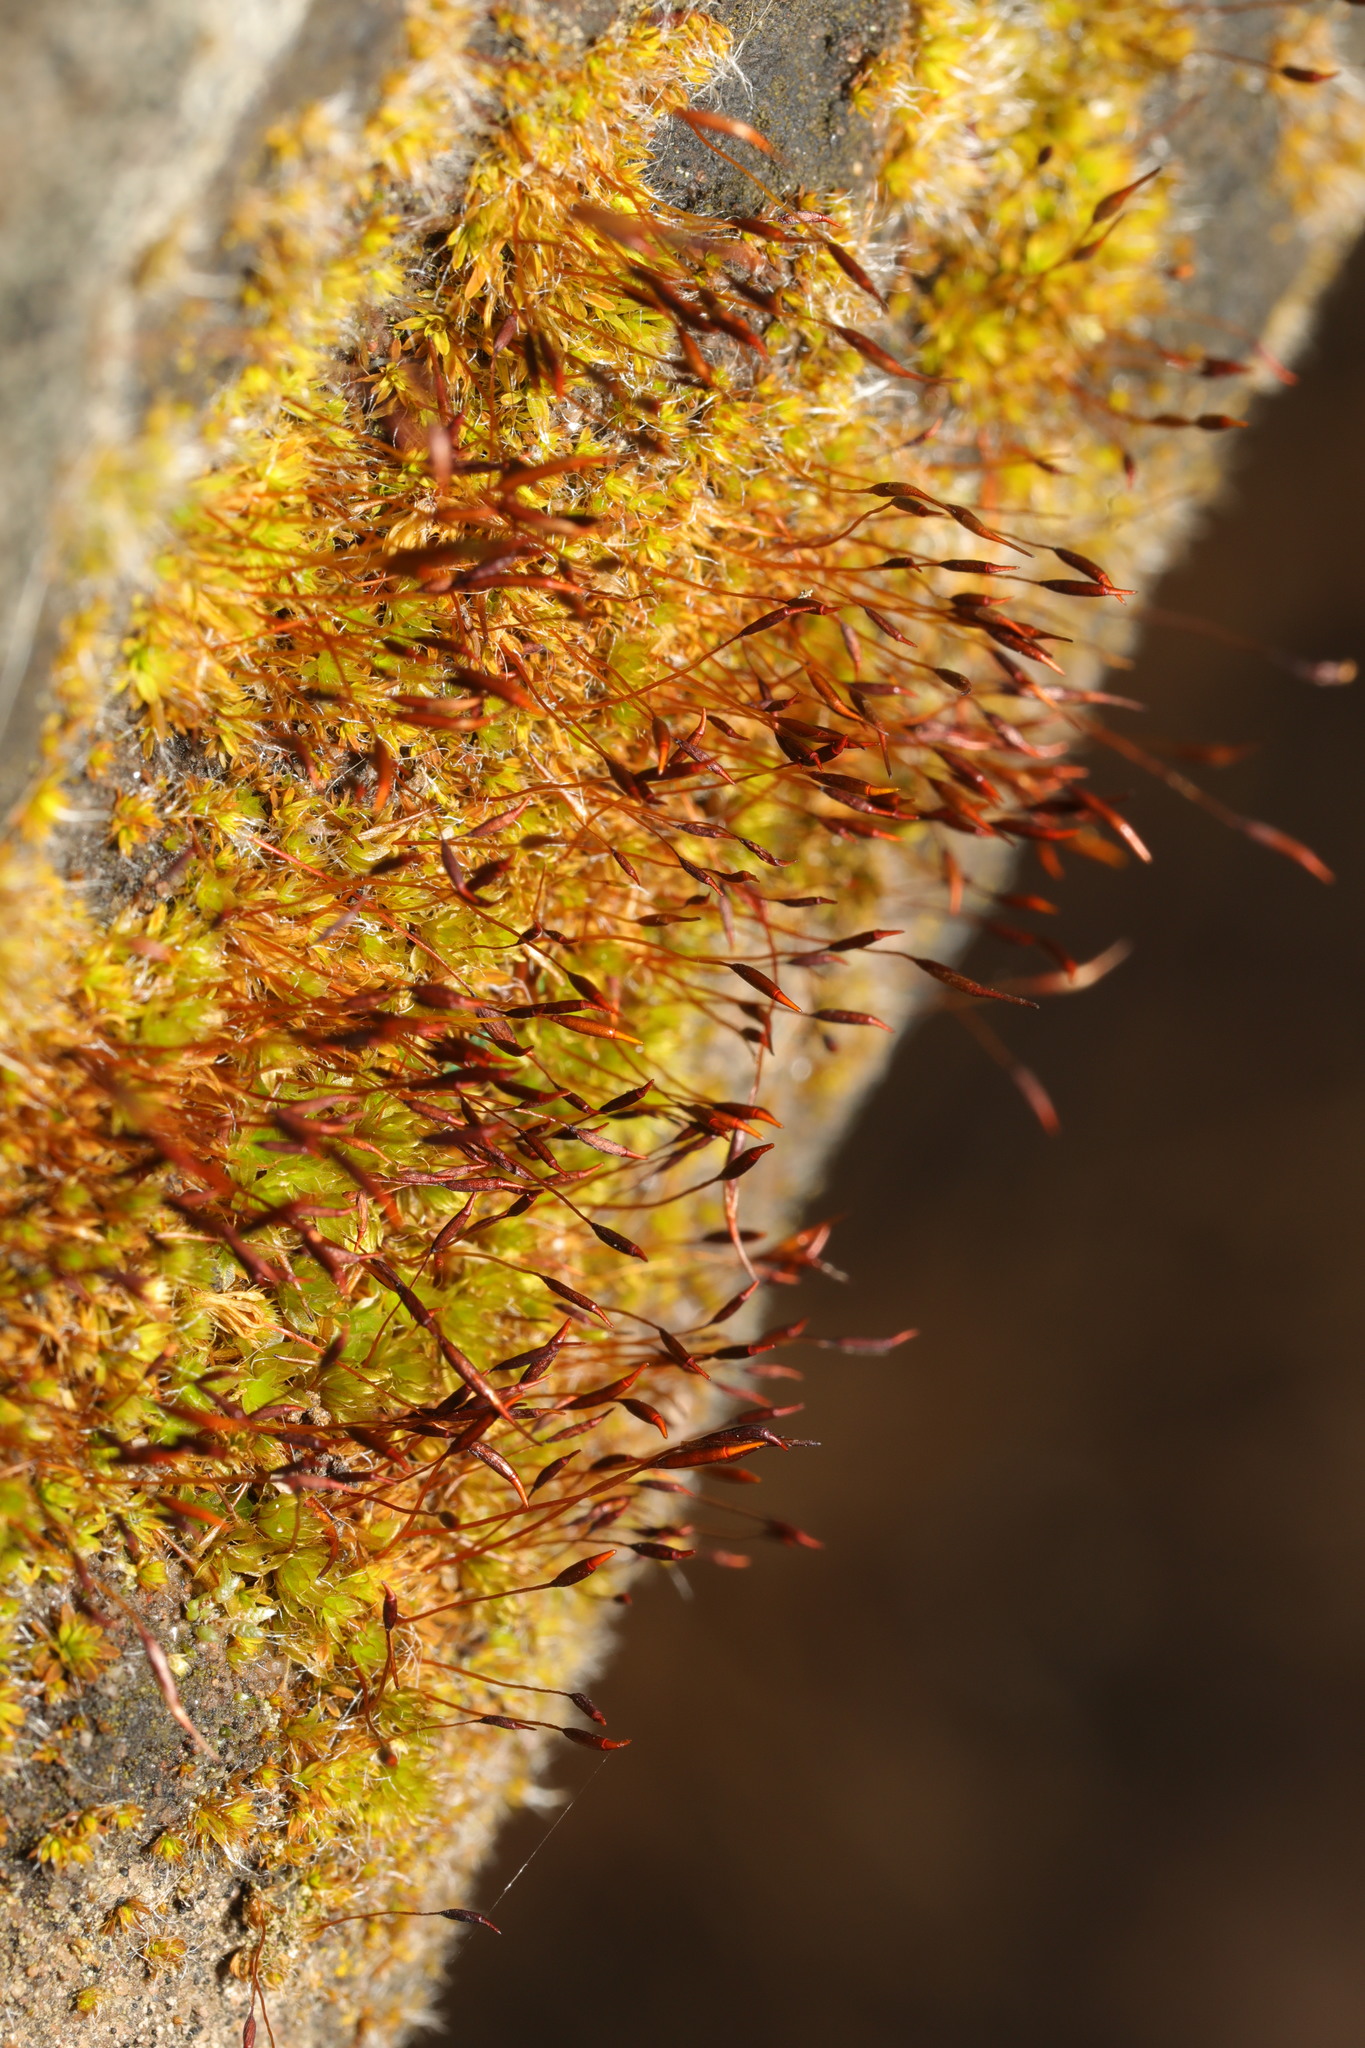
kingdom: Plantae
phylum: Bryophyta
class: Bryopsida
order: Pottiales
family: Pottiaceae
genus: Tortula
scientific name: Tortula muralis
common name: Wall screw-moss
